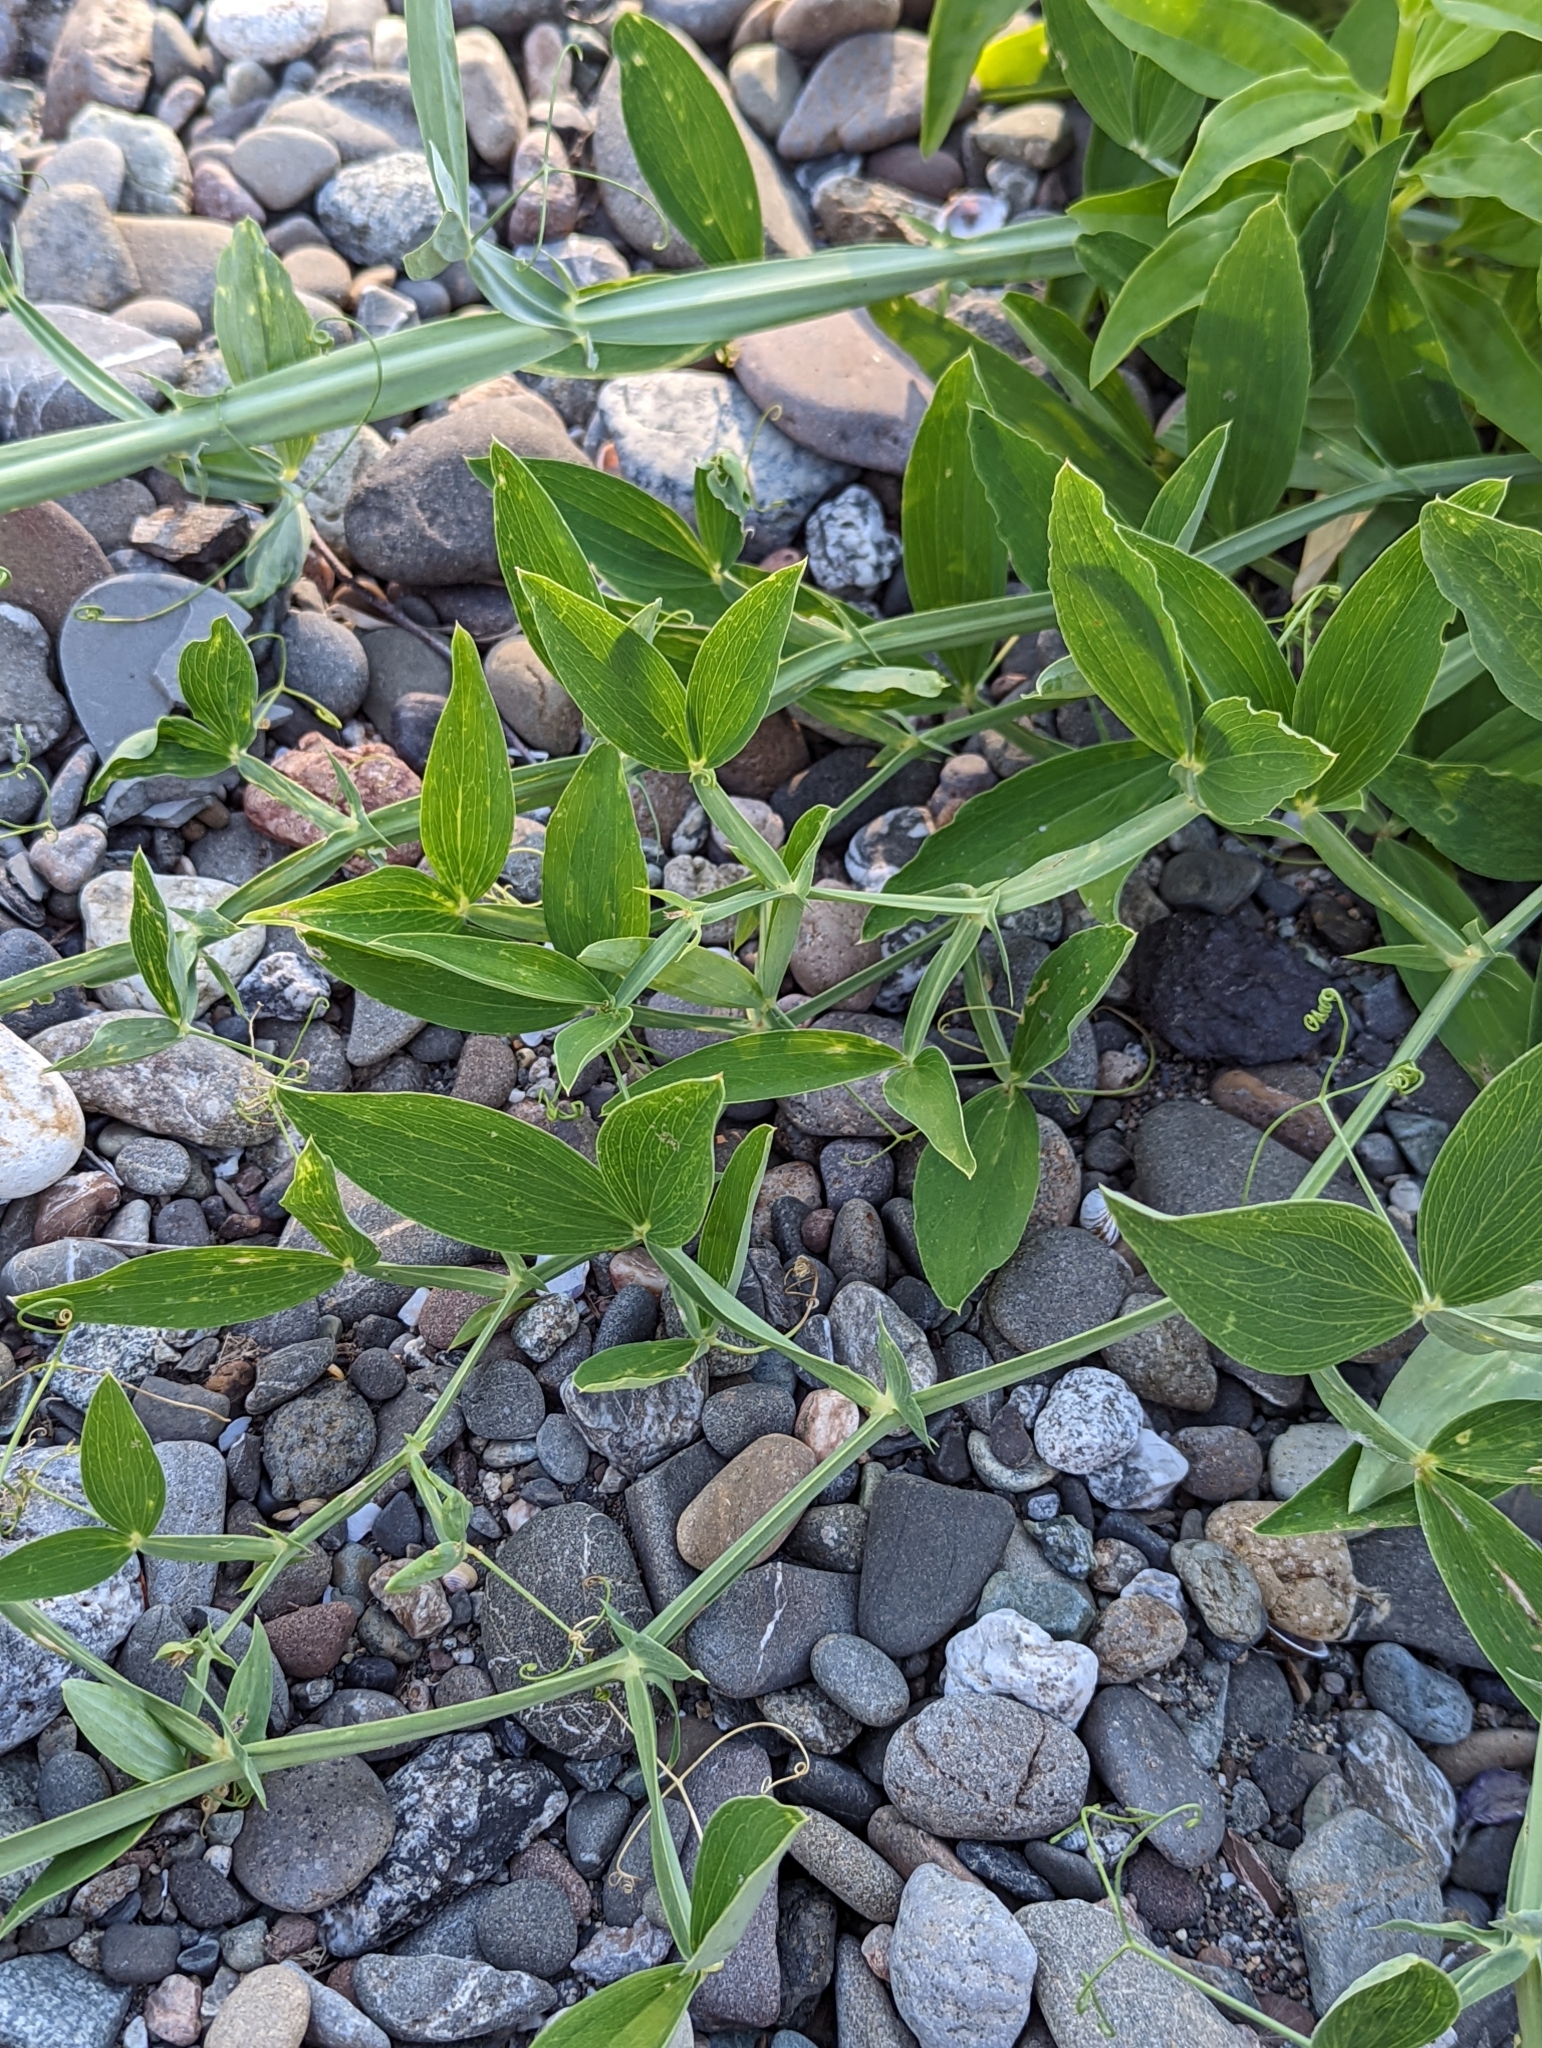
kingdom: Plantae
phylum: Tracheophyta
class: Magnoliopsida
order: Fabales
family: Fabaceae
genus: Lathyrus
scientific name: Lathyrus latifolius
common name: Perennial pea
